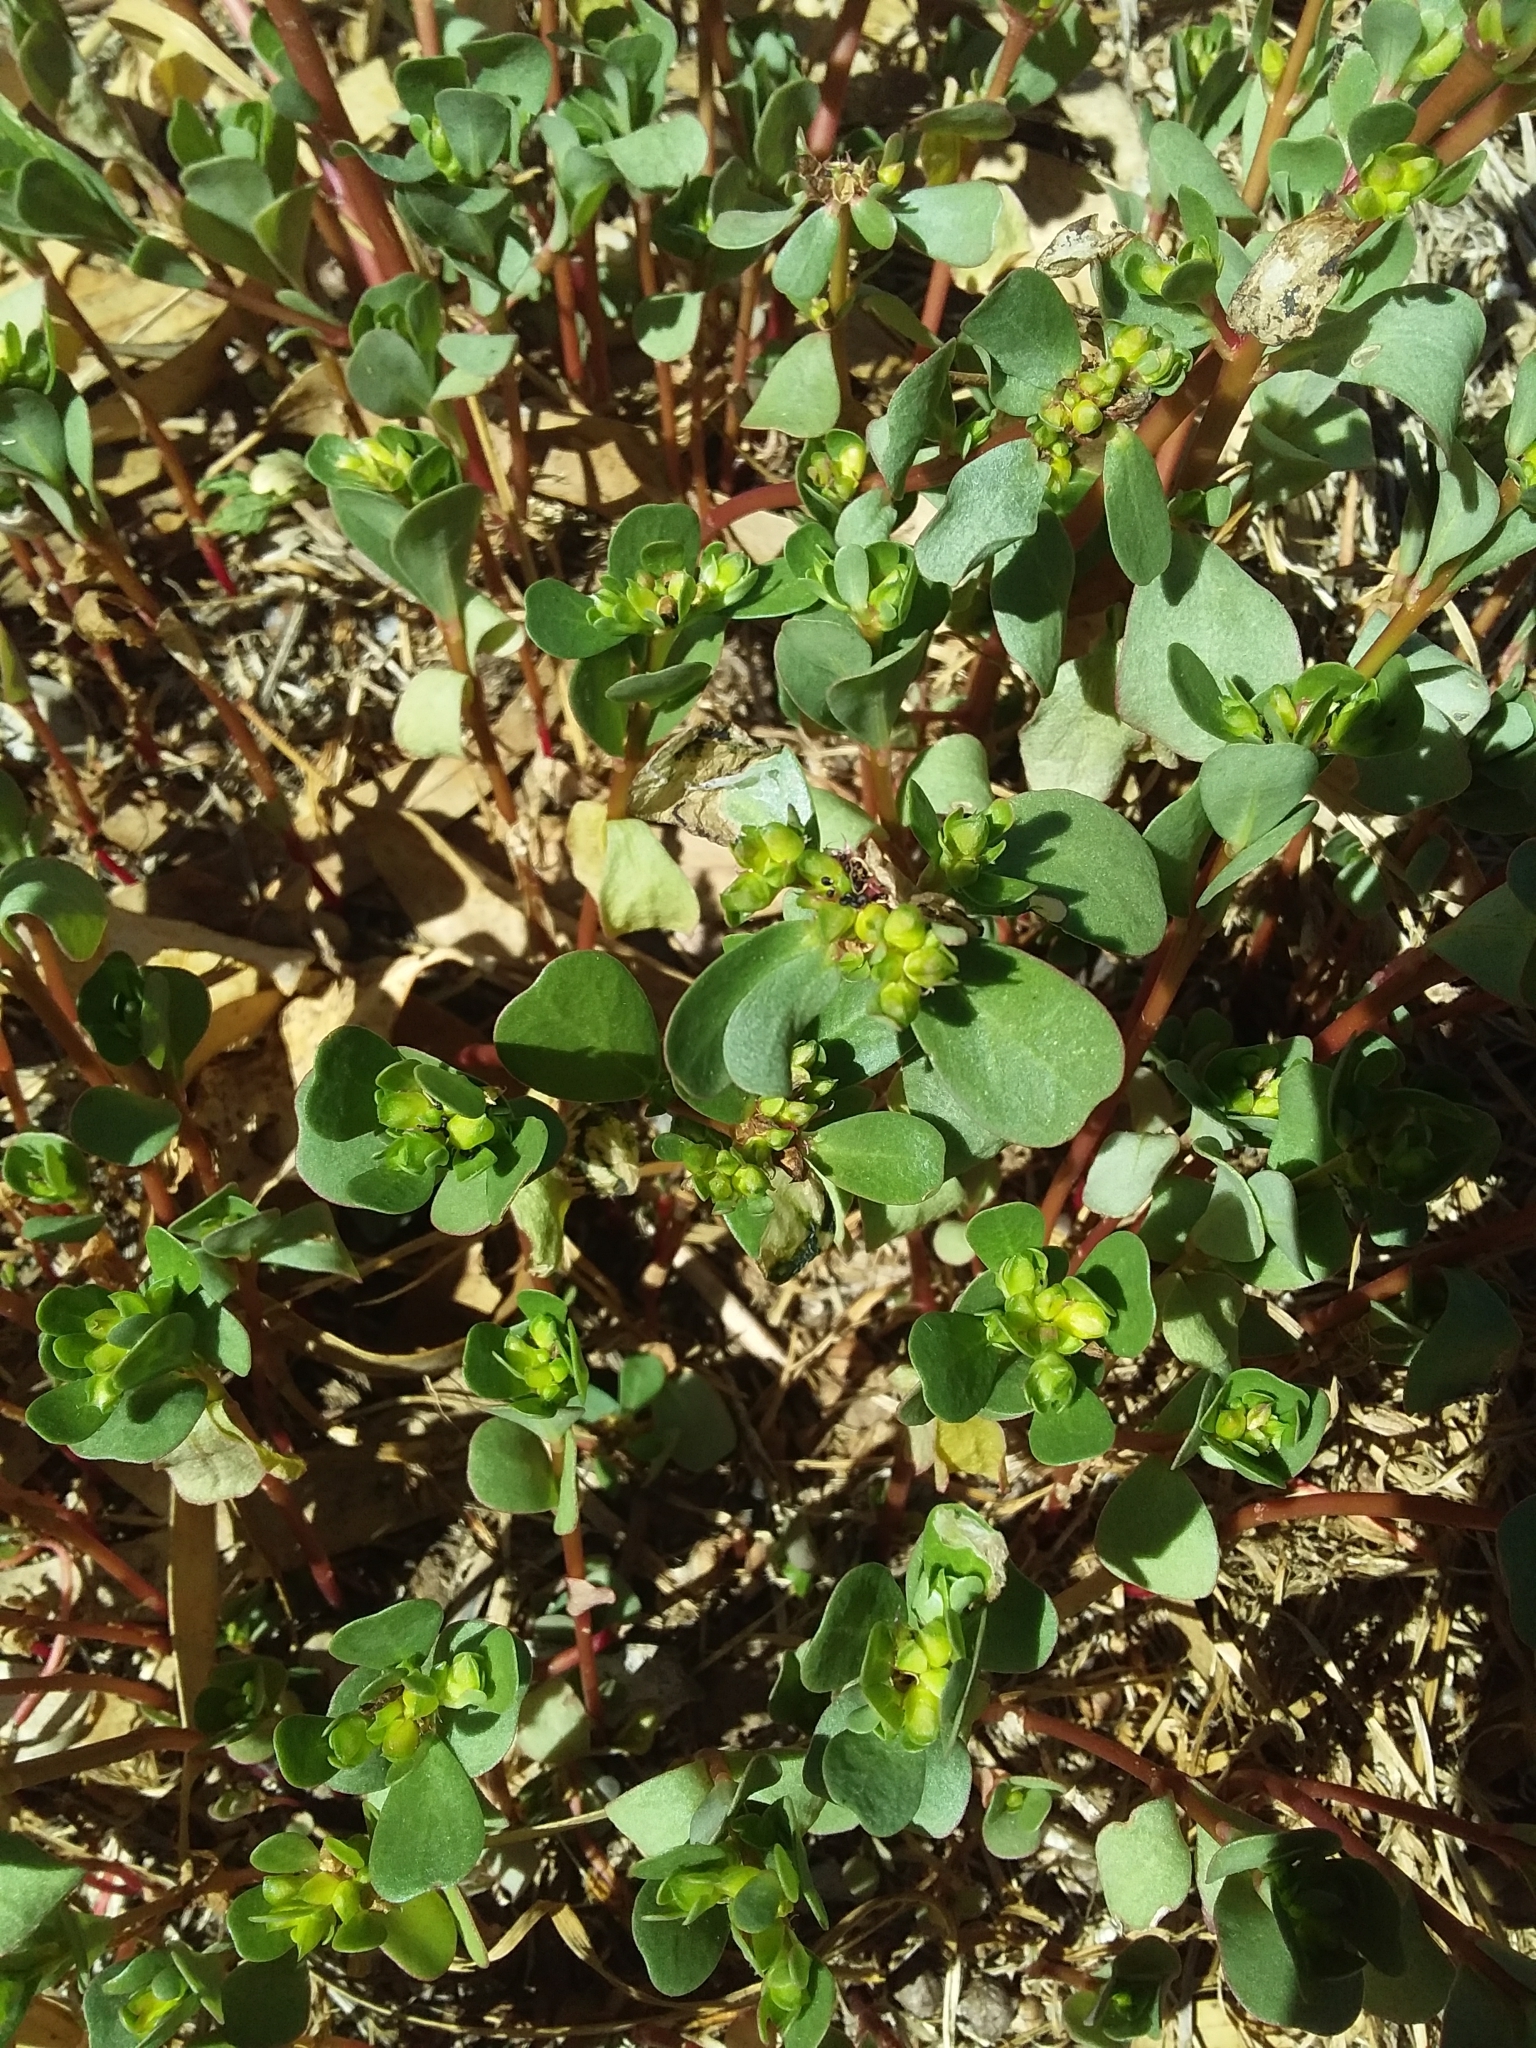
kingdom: Plantae
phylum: Tracheophyta
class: Magnoliopsida
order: Caryophyllales
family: Portulacaceae
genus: Portulaca
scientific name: Portulaca oleracea
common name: Common purslane
